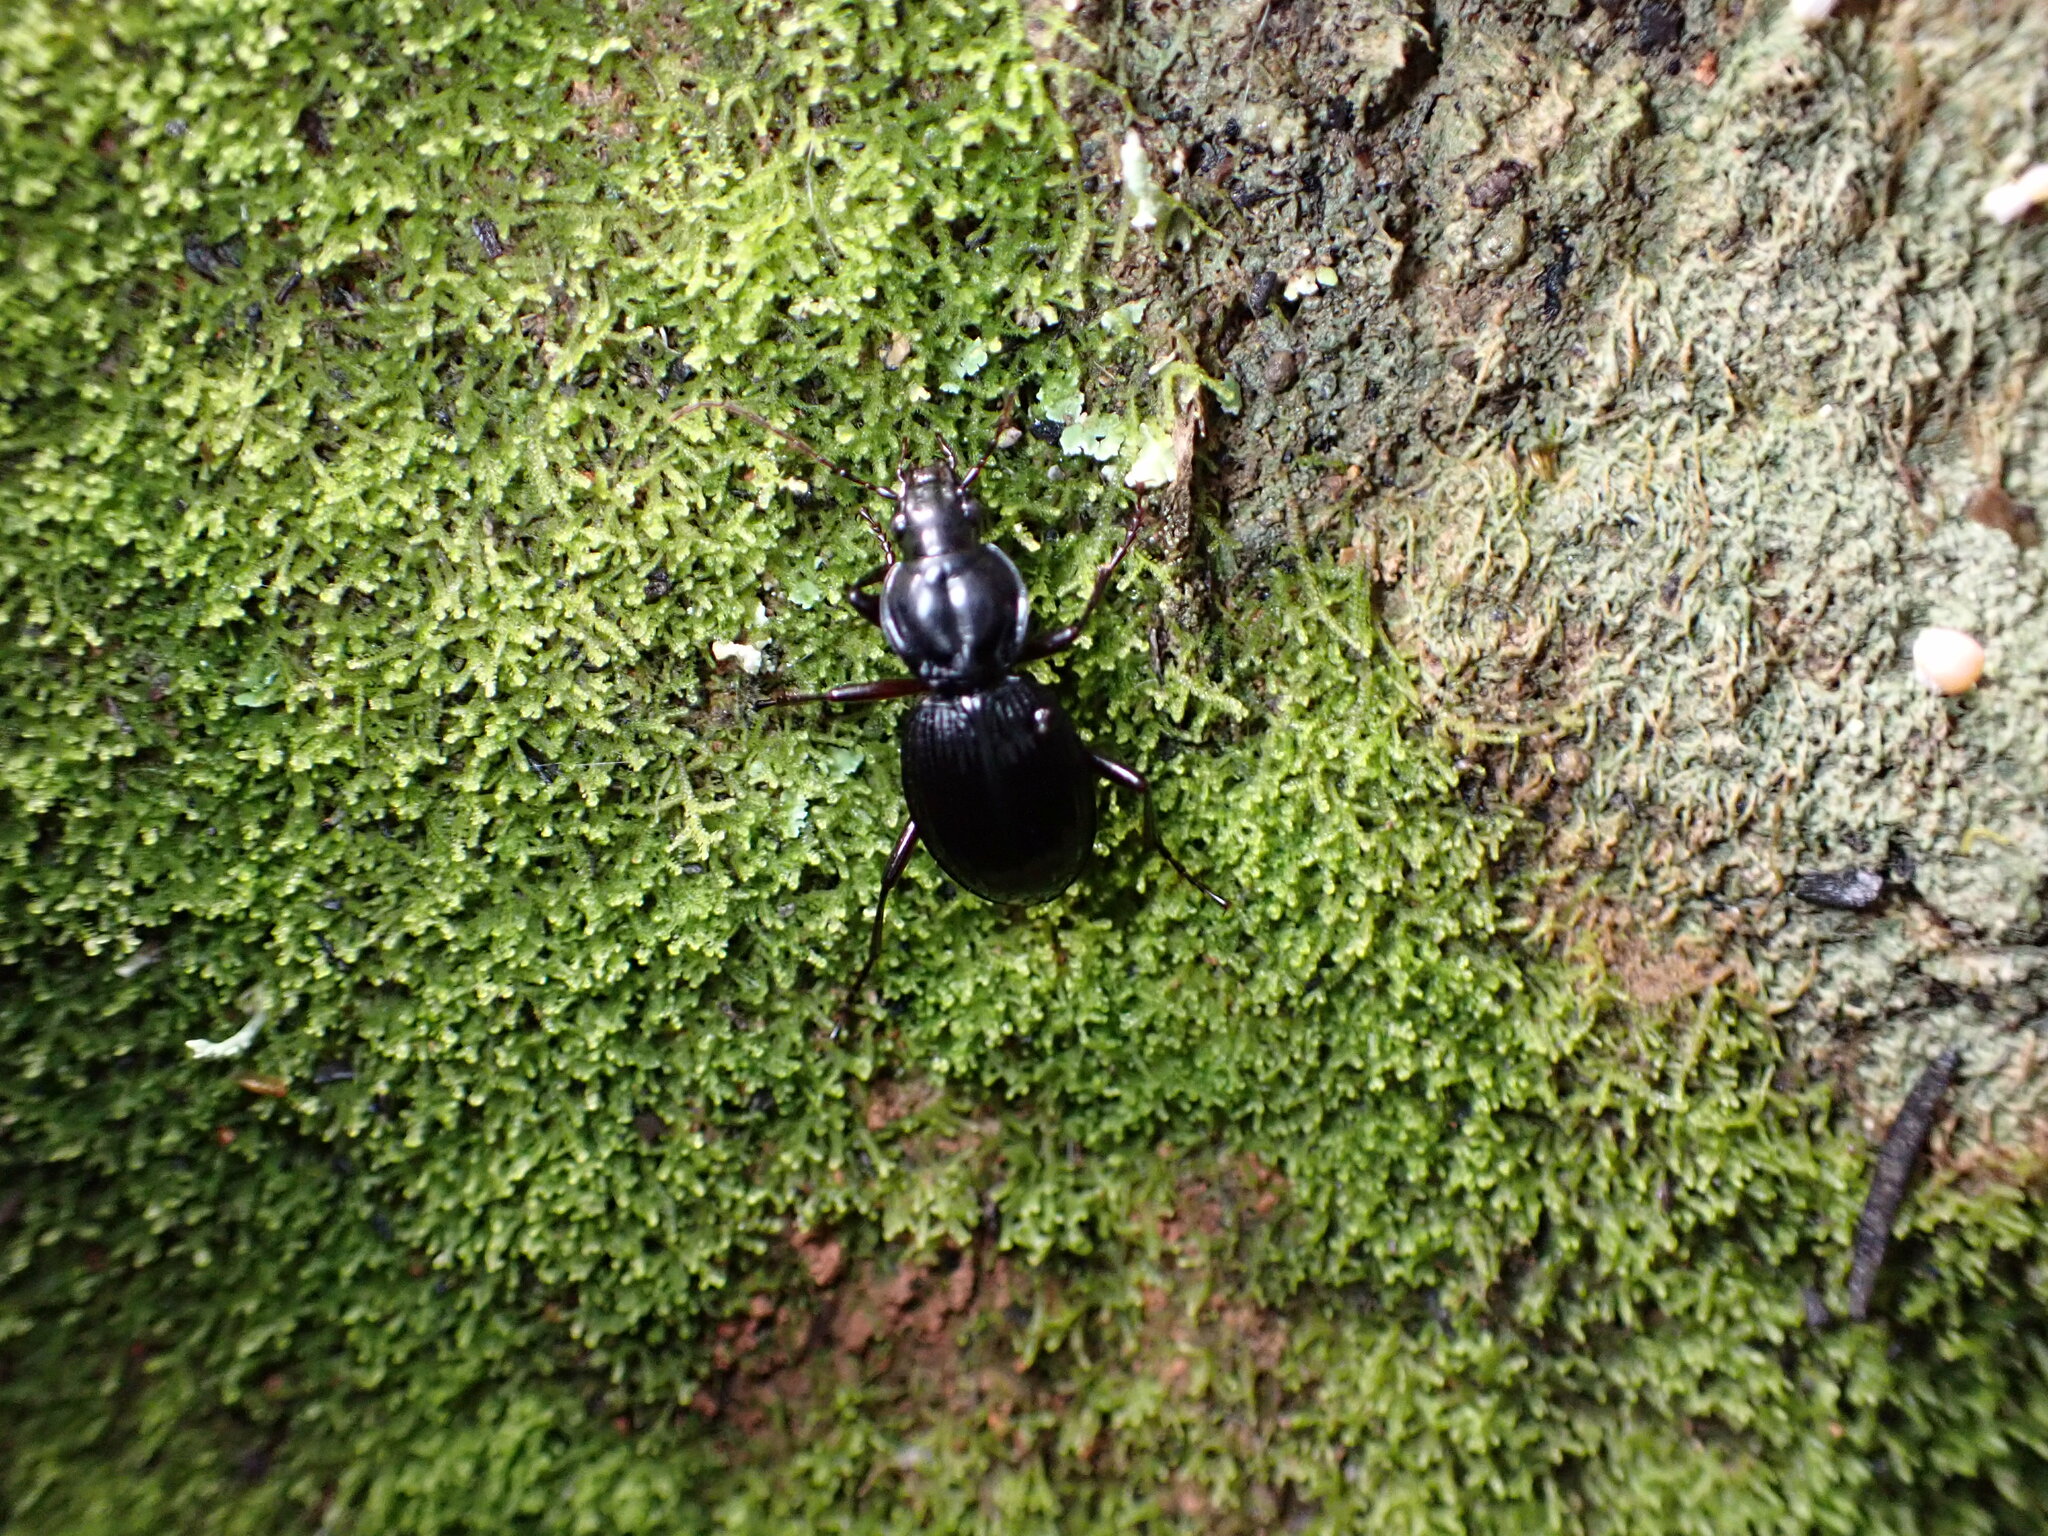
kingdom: Animalia
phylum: Arthropoda
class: Insecta
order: Coleoptera
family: Carabidae
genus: Kupeplatynus
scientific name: Kupeplatynus lucifugus
